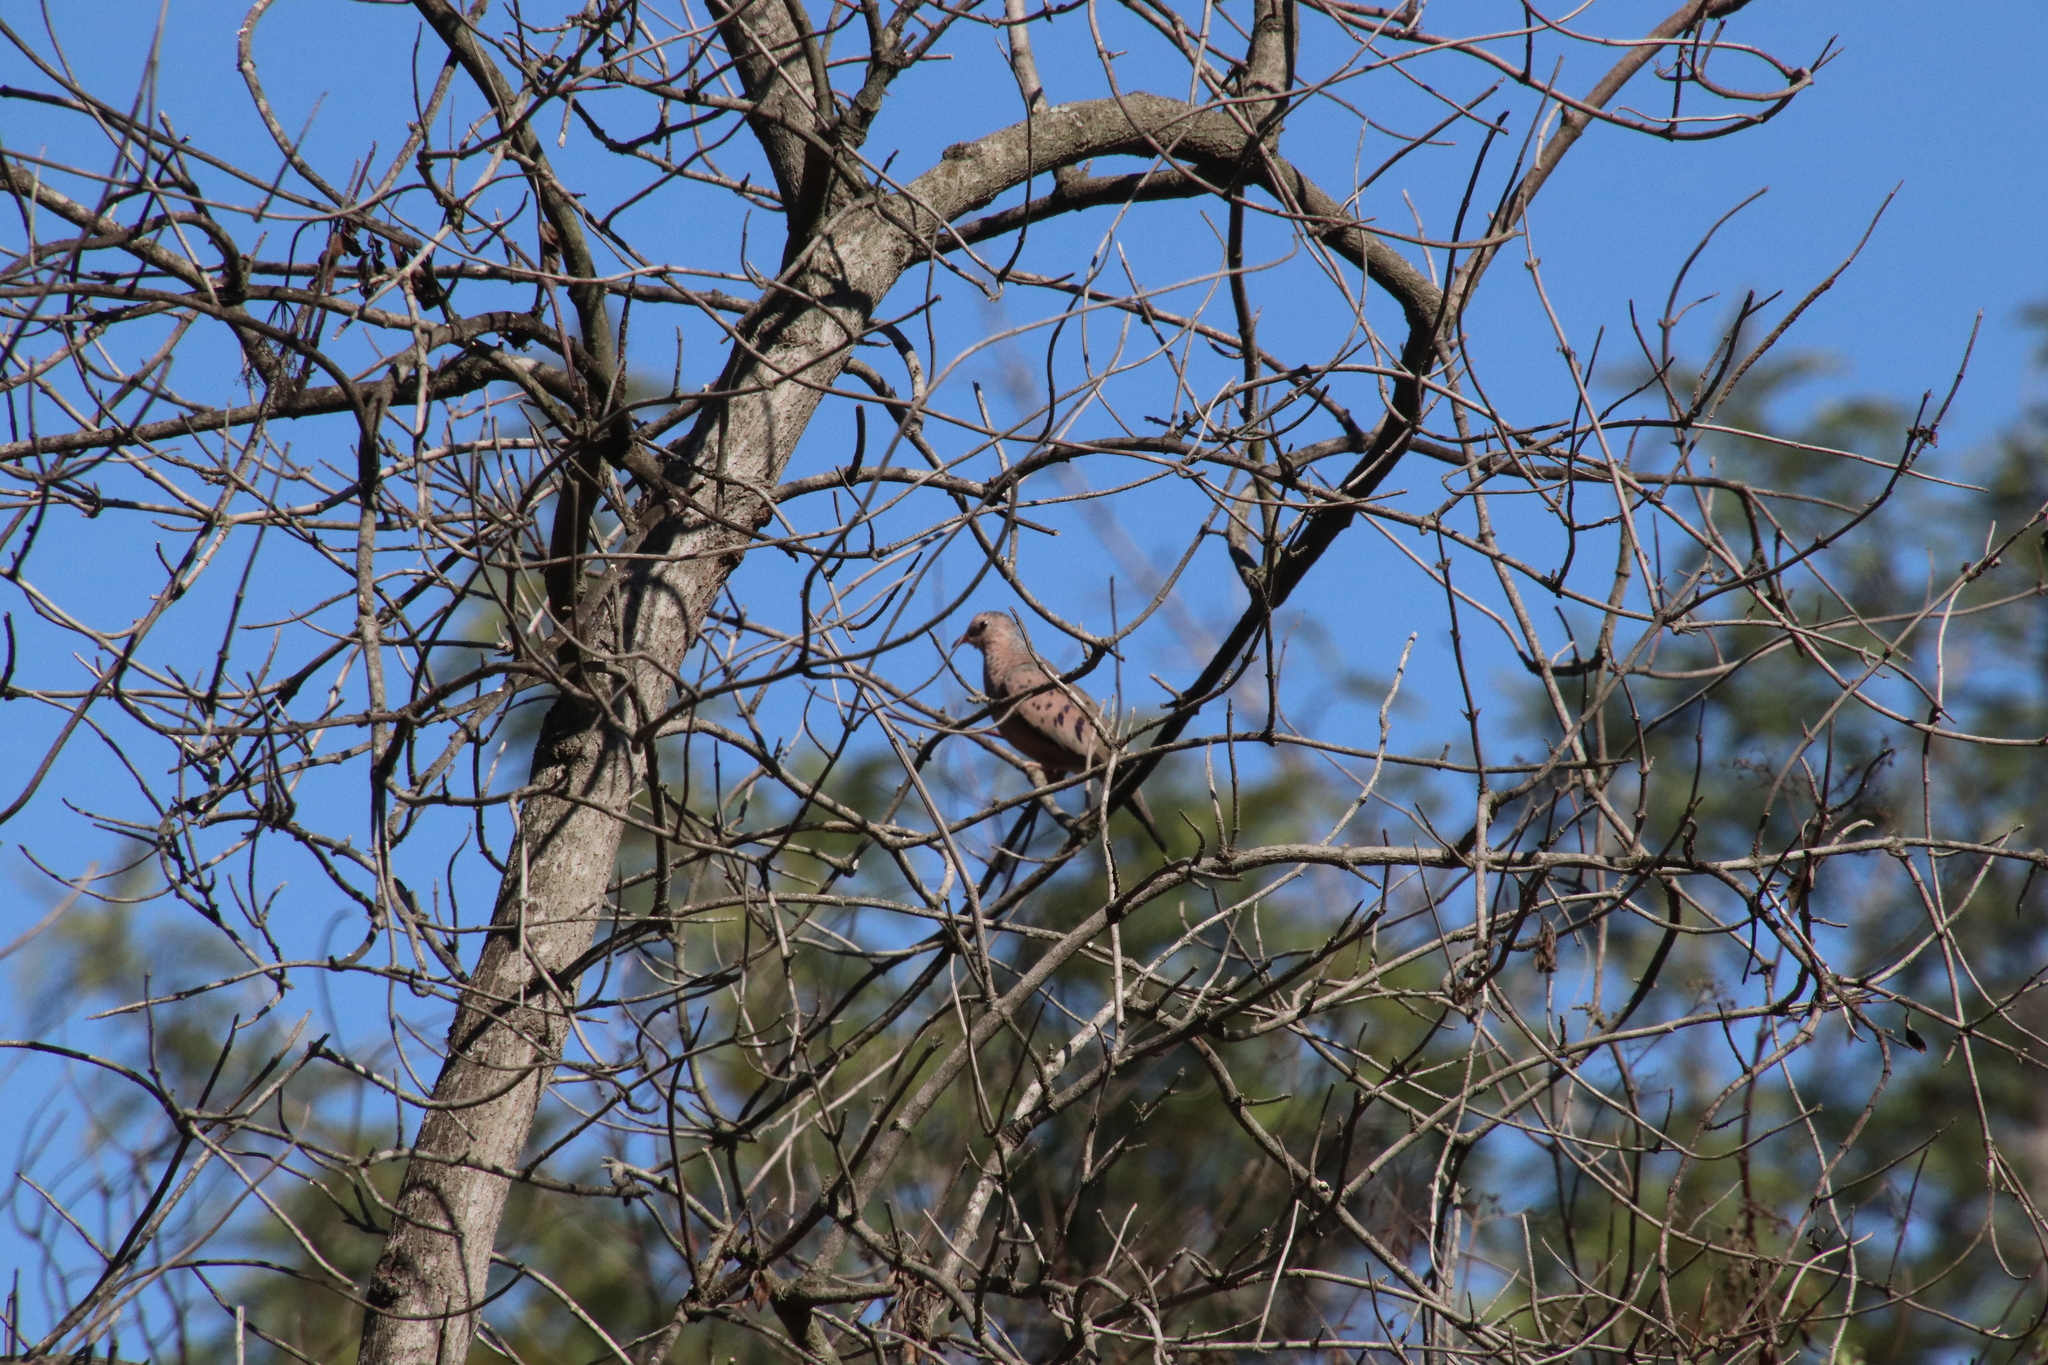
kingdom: Animalia
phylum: Chordata
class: Aves
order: Columbiformes
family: Columbidae
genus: Columbina
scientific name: Columbina passerina
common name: Common ground-dove
